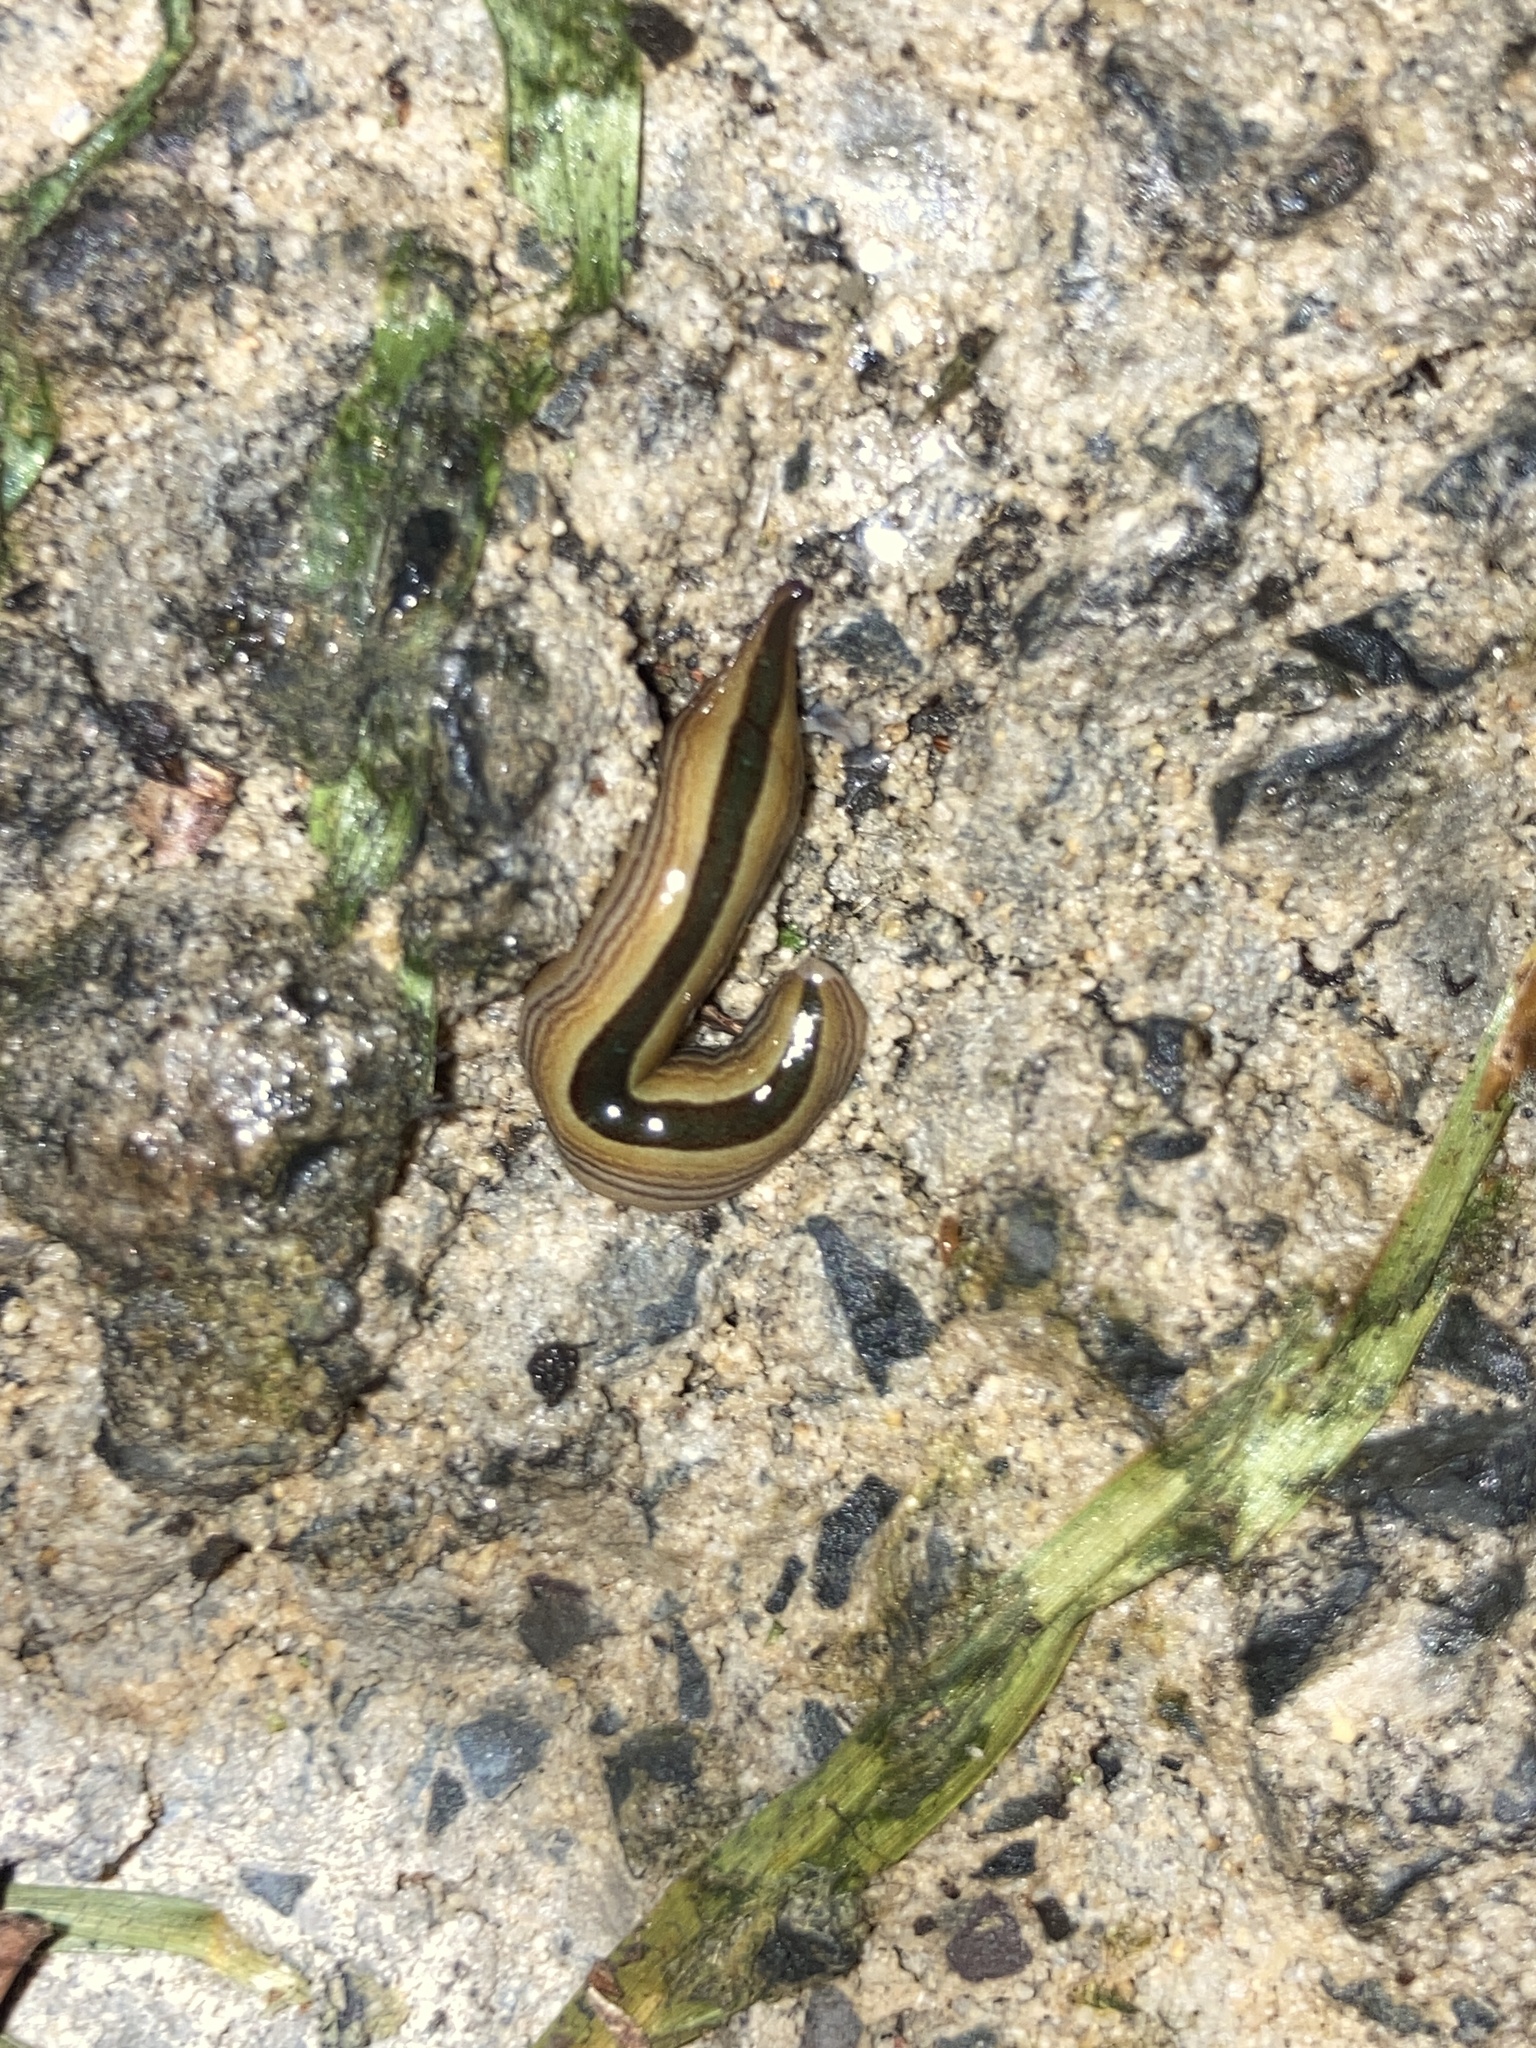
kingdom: Animalia
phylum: Platyhelminthes
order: Tricladida
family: Geoplanidae
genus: Australopacifica
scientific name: Australopacifica regina
